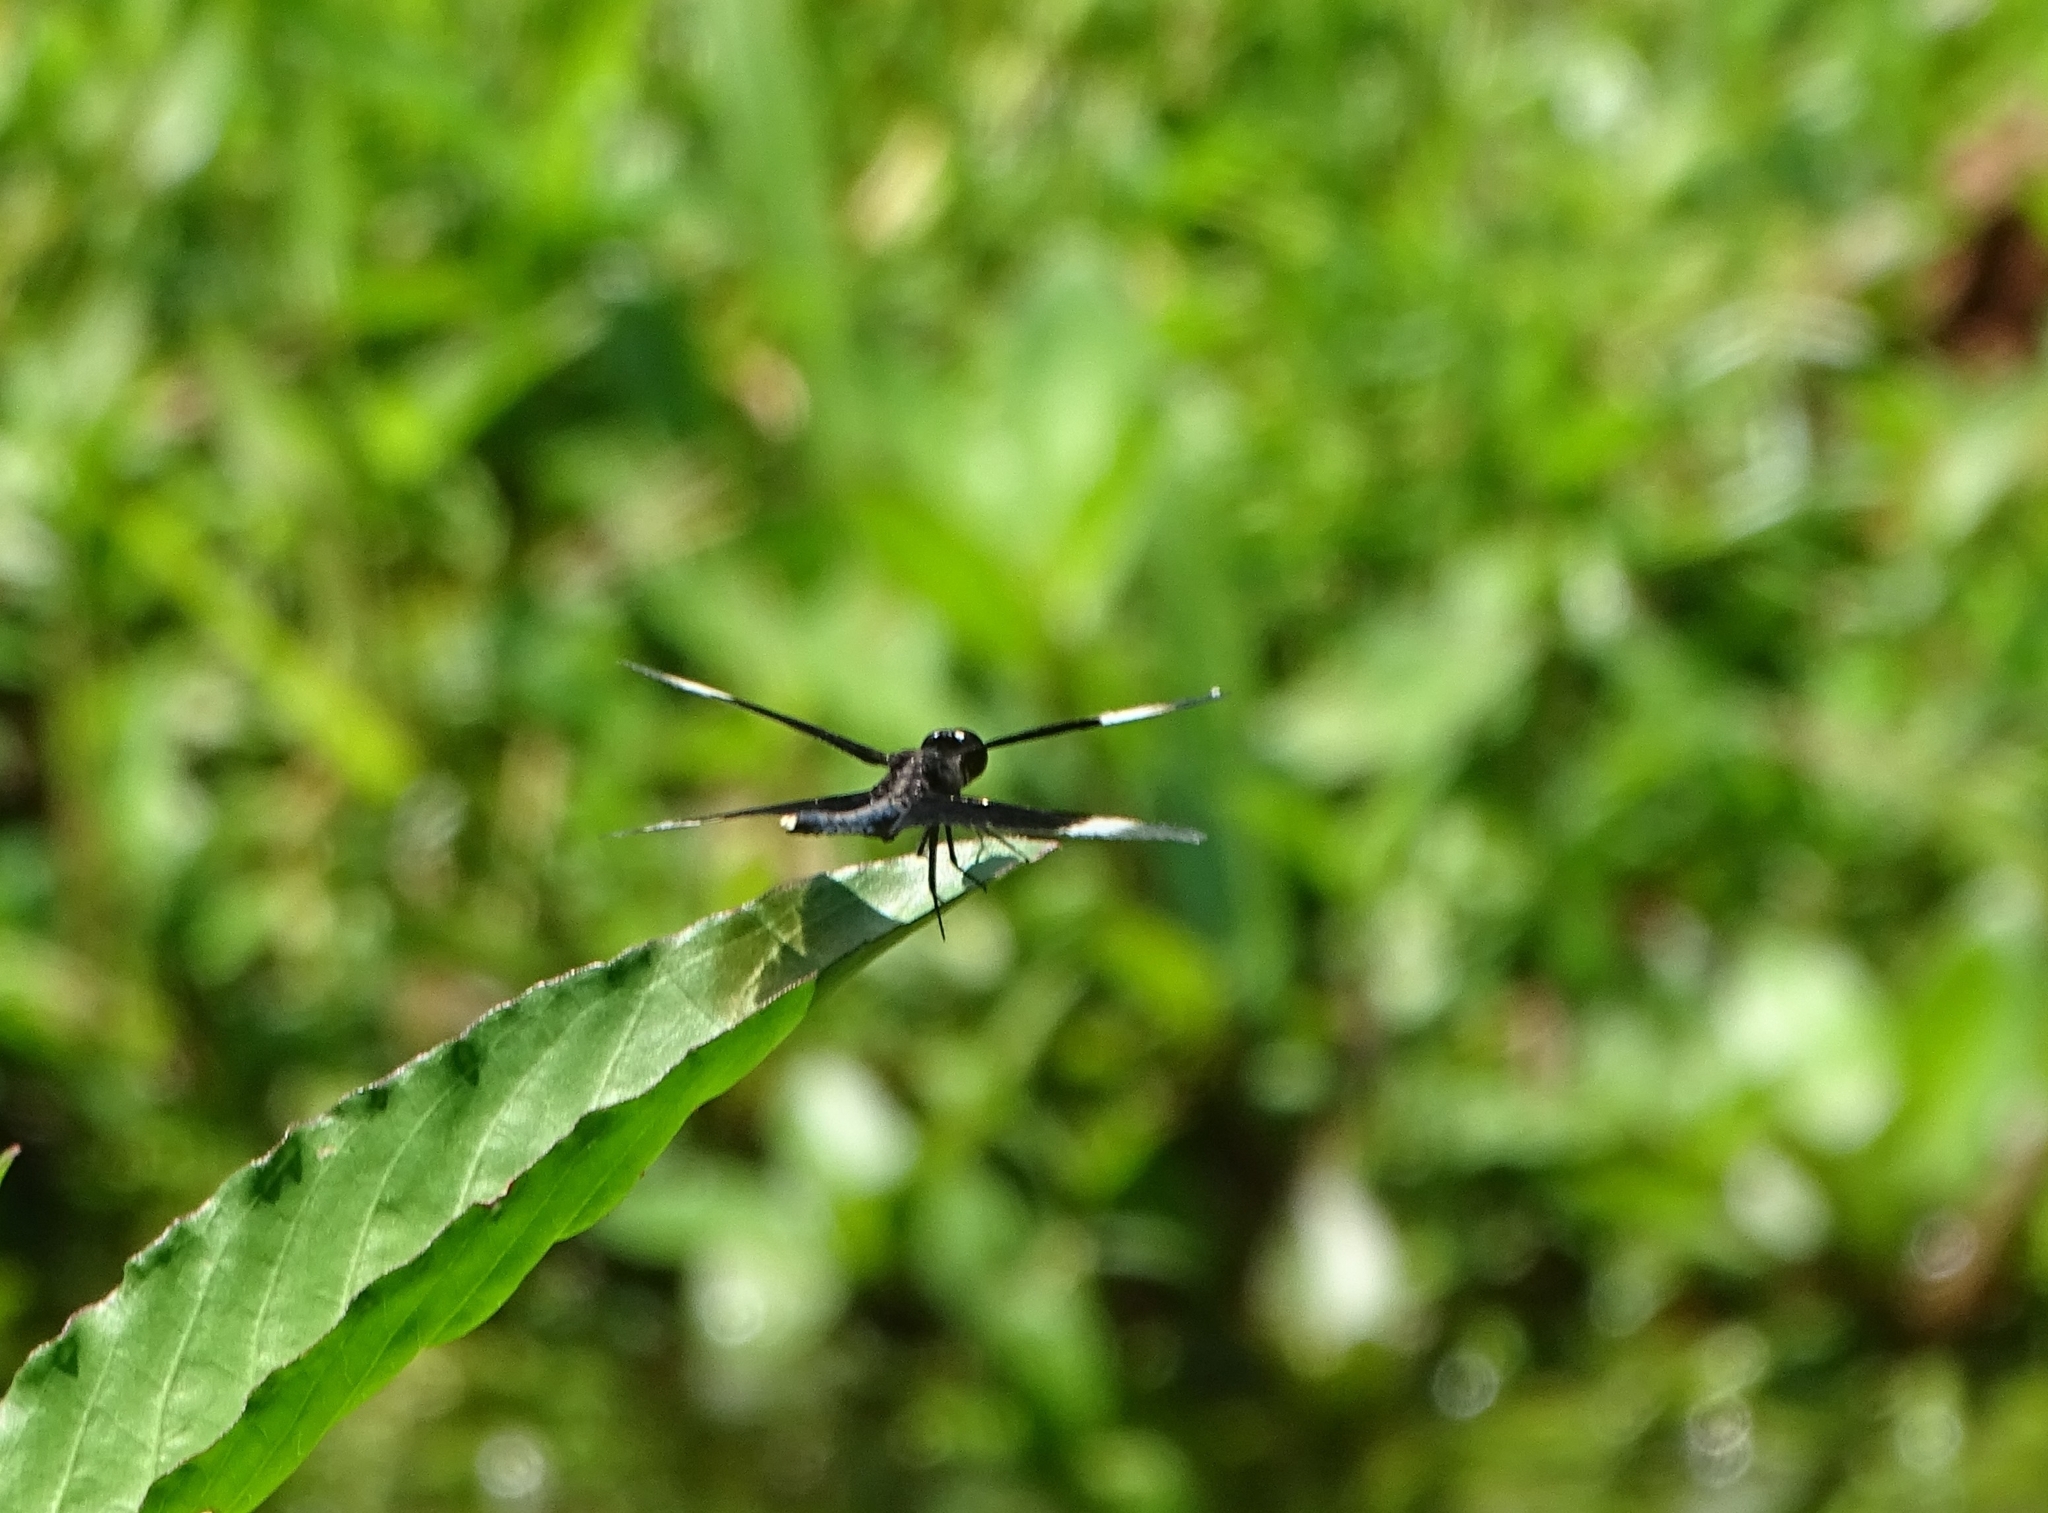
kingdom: Animalia
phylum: Arthropoda
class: Insecta
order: Odonata
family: Libellulidae
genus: Neurothemis
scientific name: Neurothemis tullia
